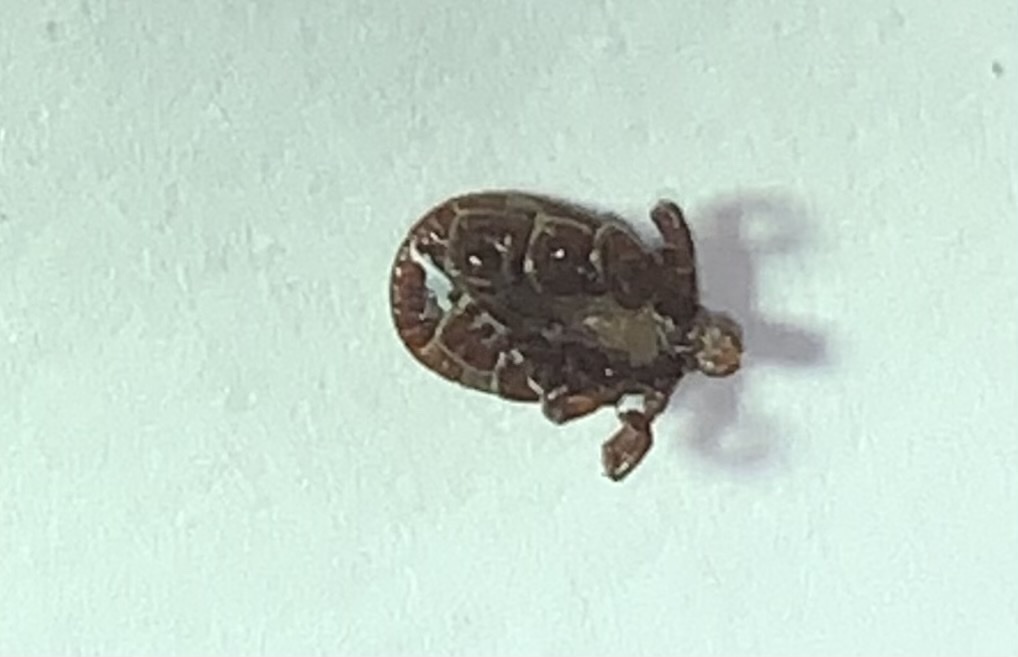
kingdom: Animalia
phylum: Arthropoda
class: Arachnida
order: Ixodida
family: Ixodidae
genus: Dermacentor
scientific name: Dermacentor variabilis
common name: American dog tick
